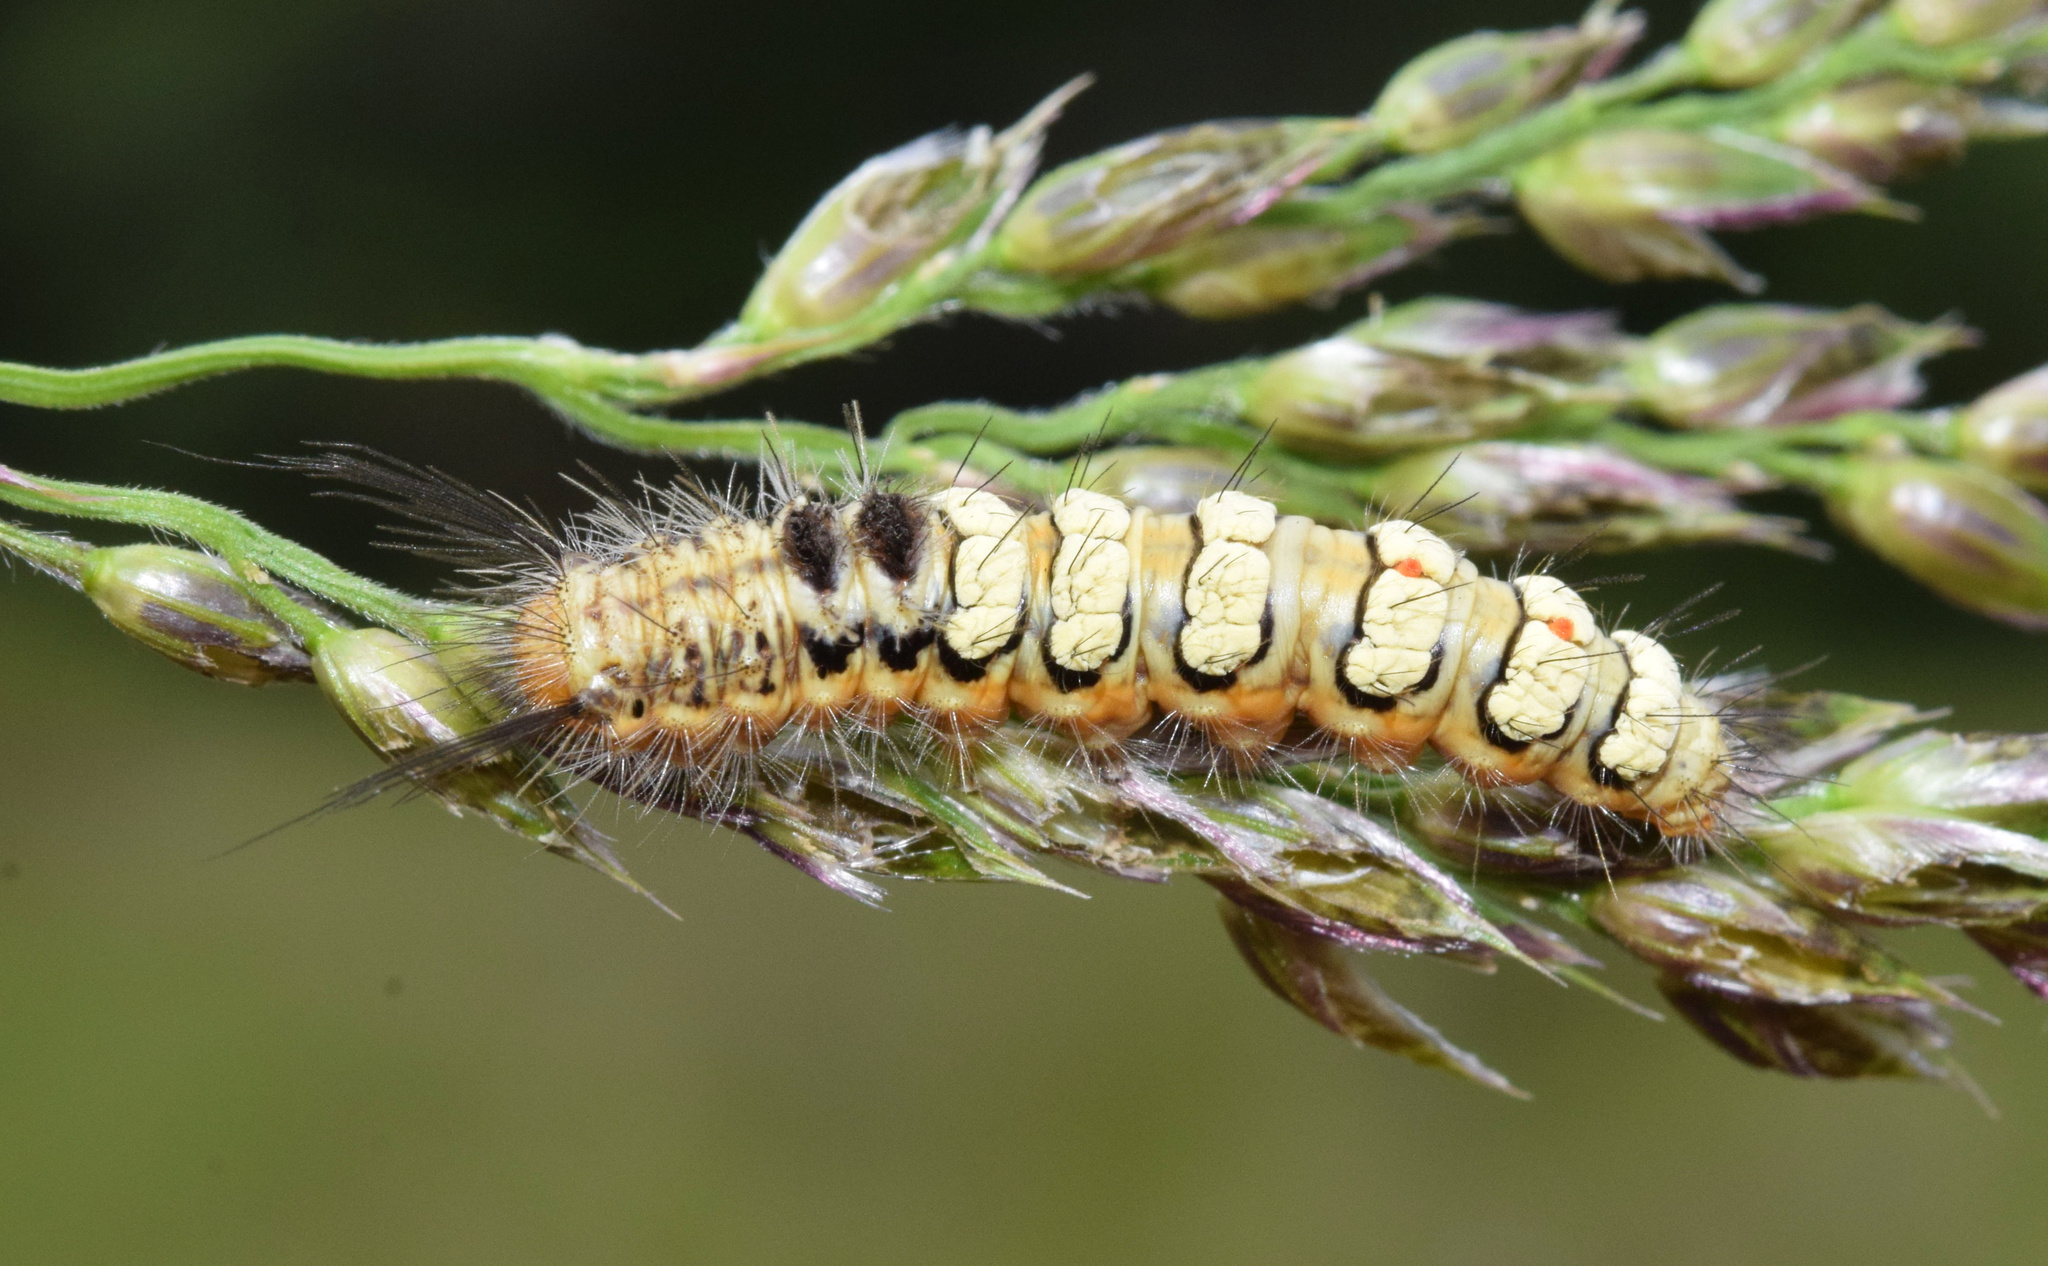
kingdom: Animalia
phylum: Arthropoda
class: Insecta
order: Lepidoptera
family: Erebidae
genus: Lacipa
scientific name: Lacipa nobilis
